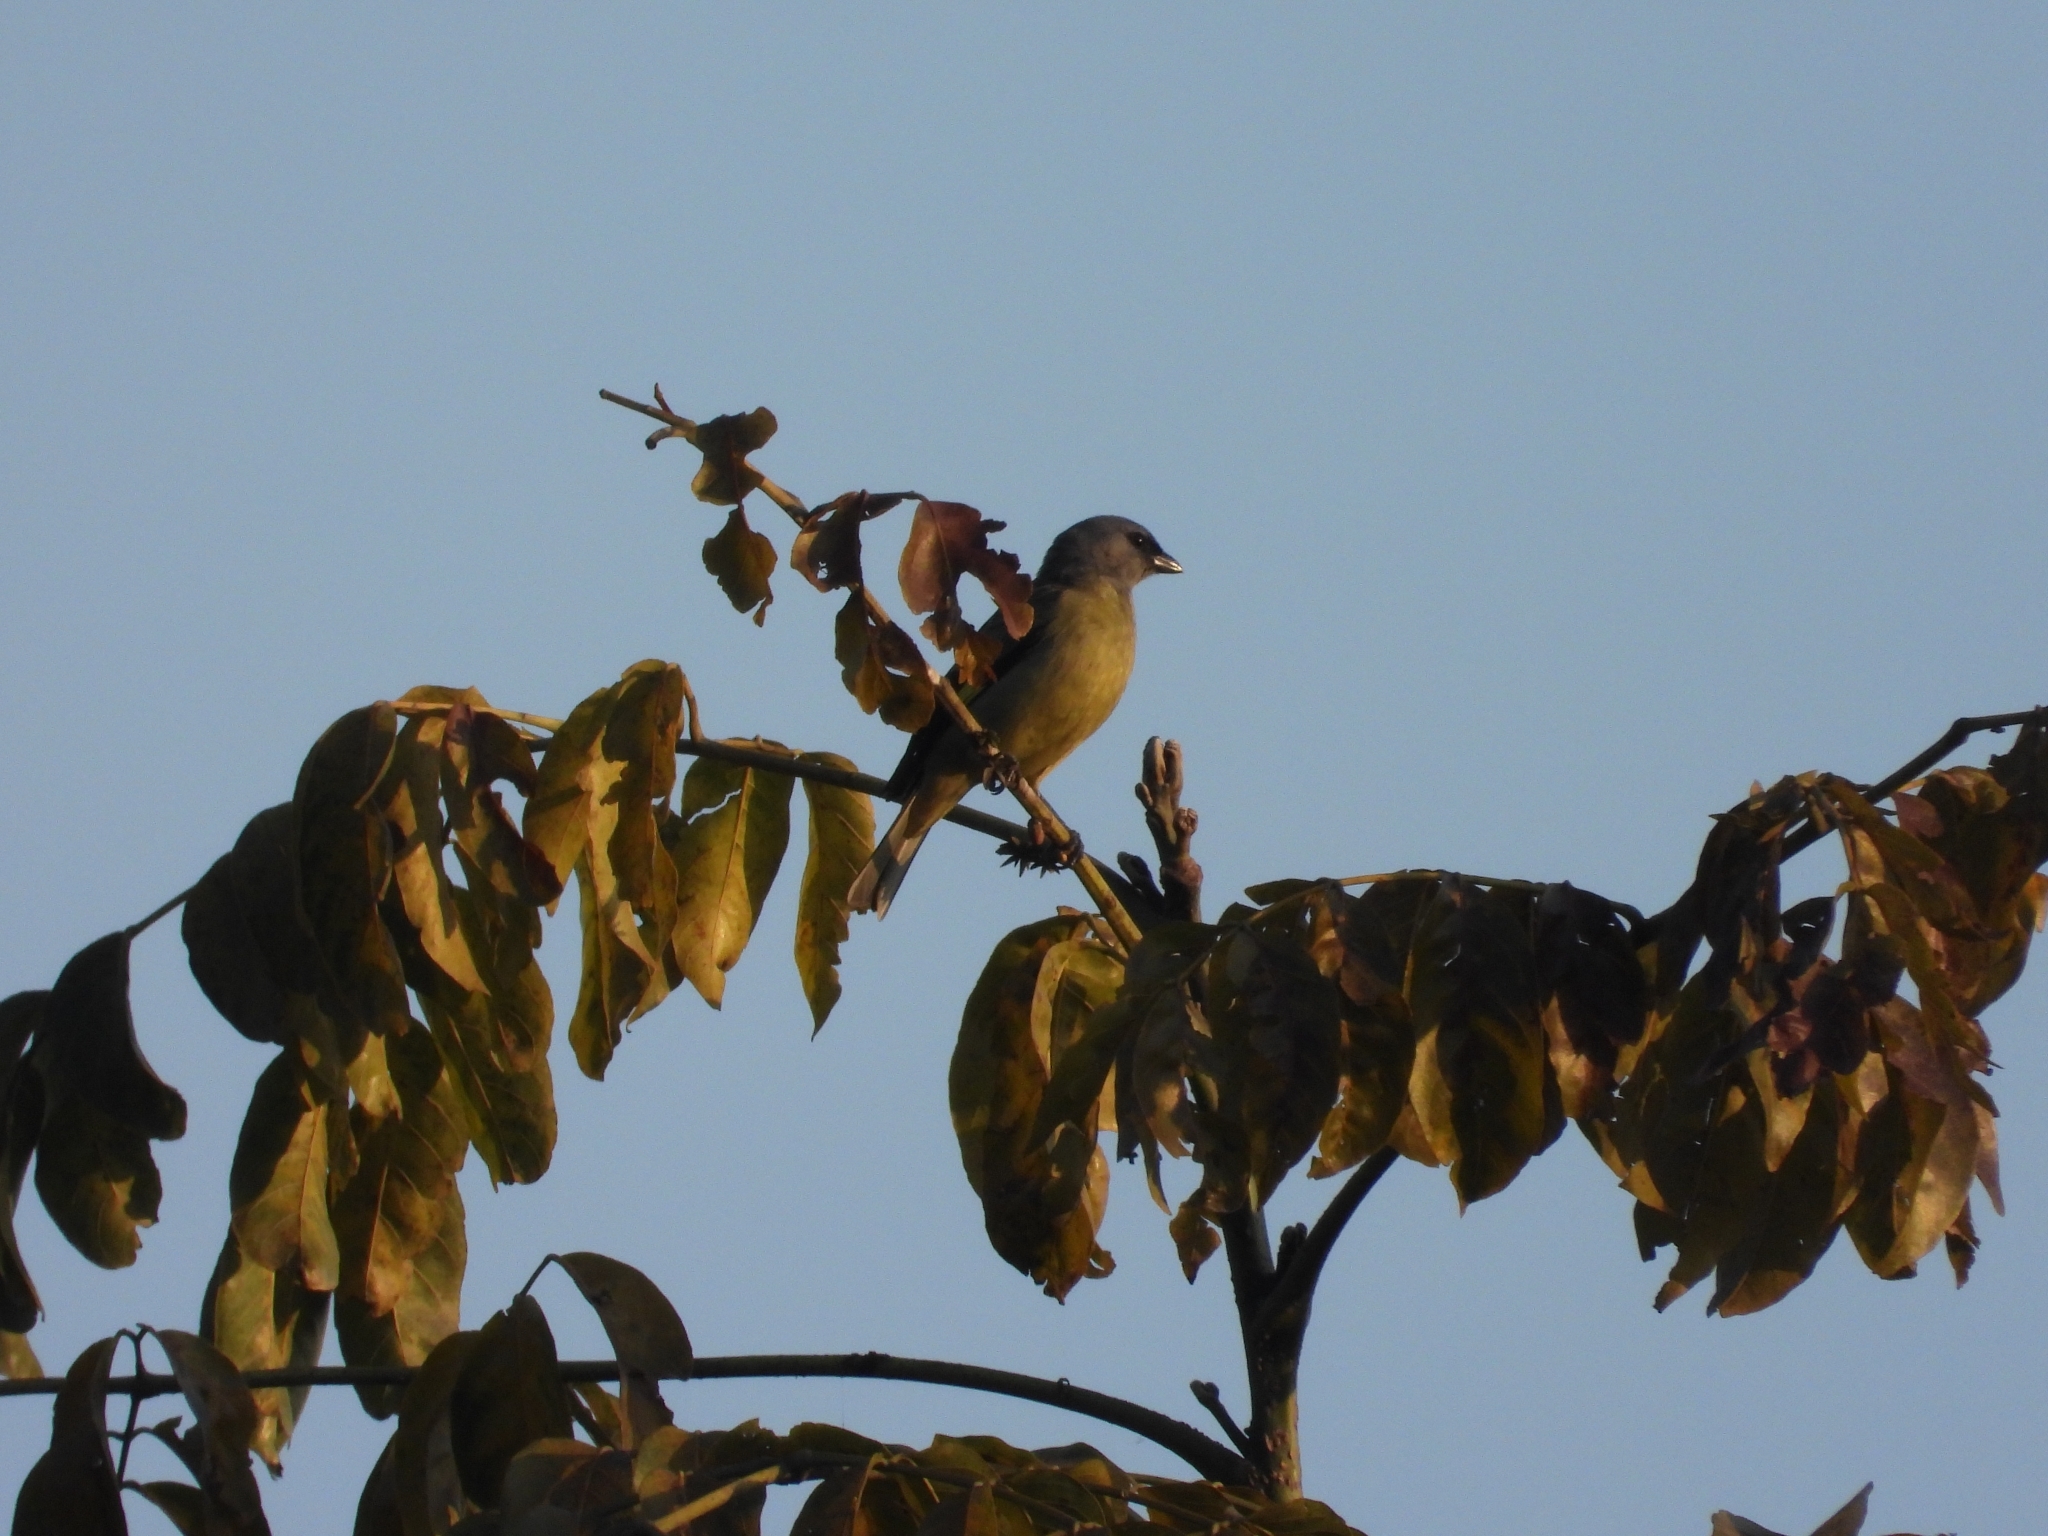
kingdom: Animalia
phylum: Chordata
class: Aves
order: Passeriformes
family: Thraupidae
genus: Thraupis
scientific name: Thraupis abbas
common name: Yellow-winged tanager
